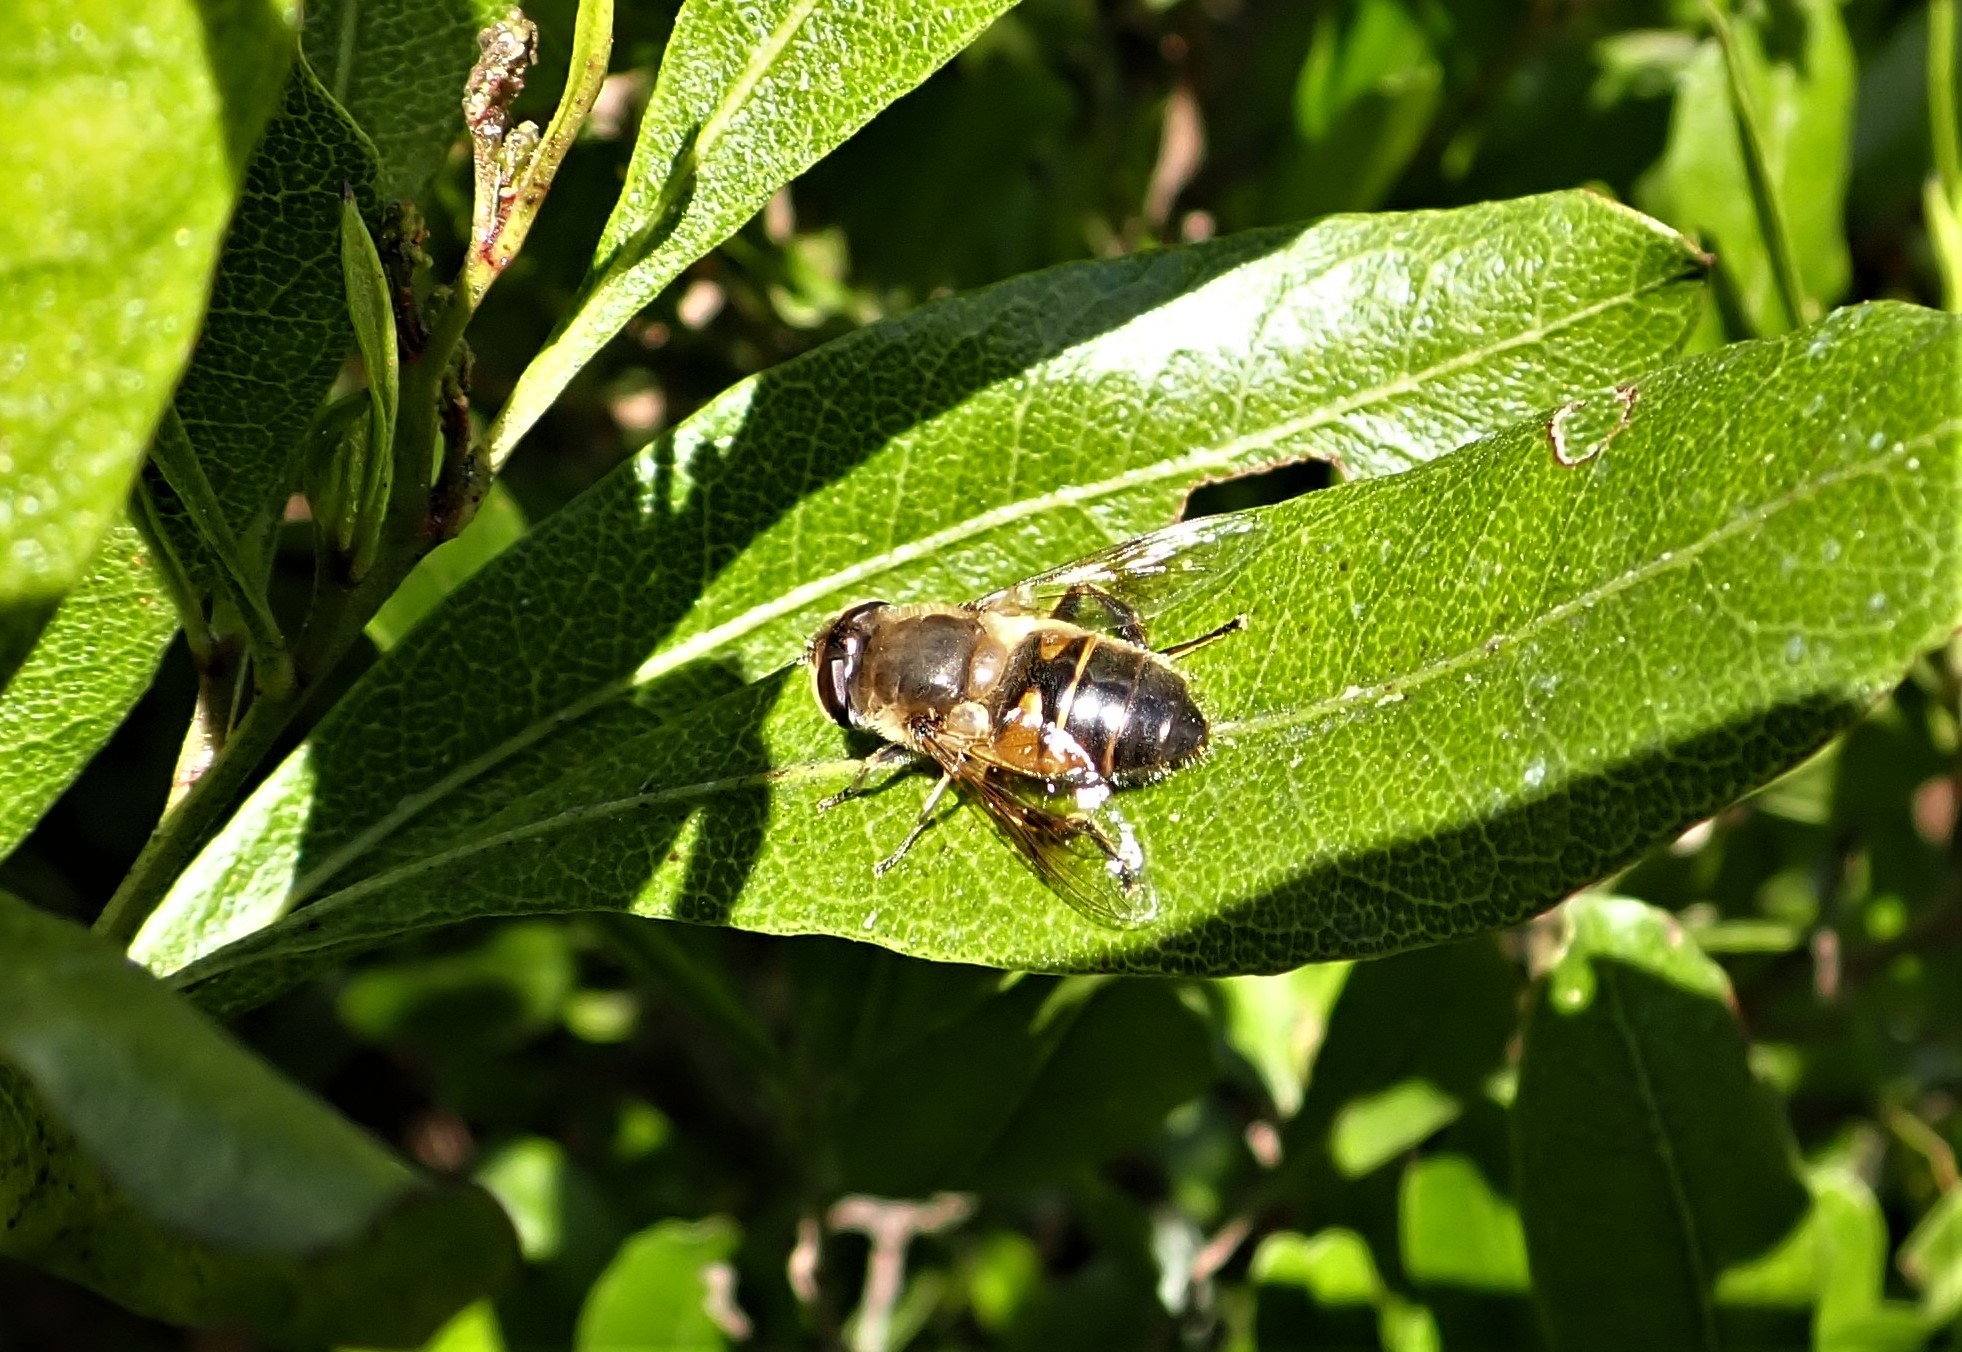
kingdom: Animalia
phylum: Arthropoda
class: Insecta
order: Diptera
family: Syrphidae
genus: Eristalis
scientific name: Eristalis tenax
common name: Drone fly
